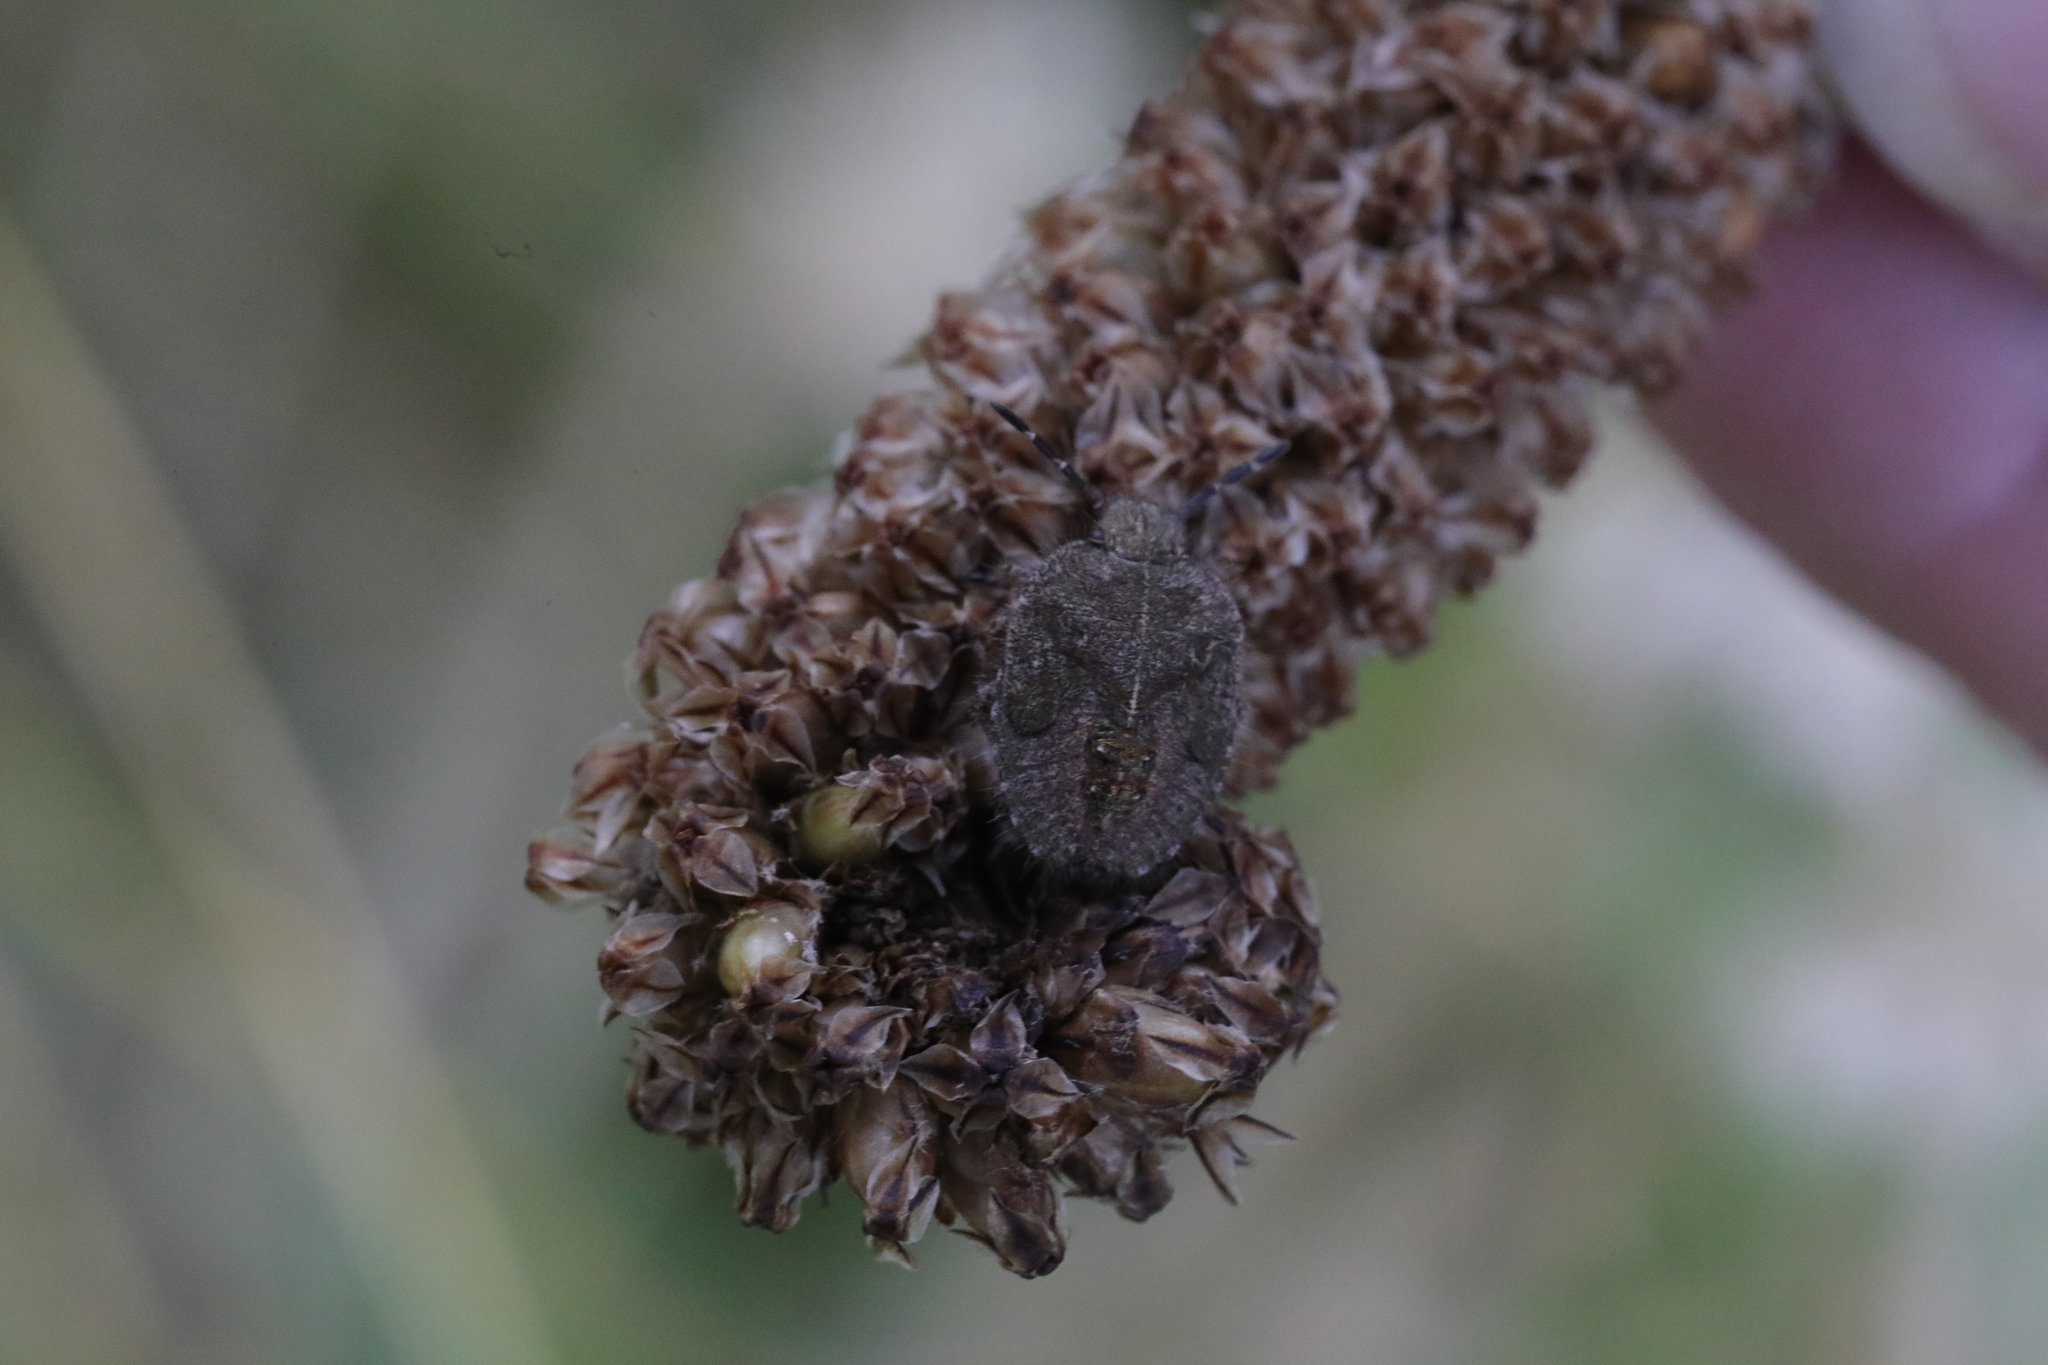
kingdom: Animalia
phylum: Arthropoda
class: Insecta
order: Hemiptera
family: Pentatomidae
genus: Dolycoris
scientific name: Dolycoris baccarum
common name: Sloe bug
